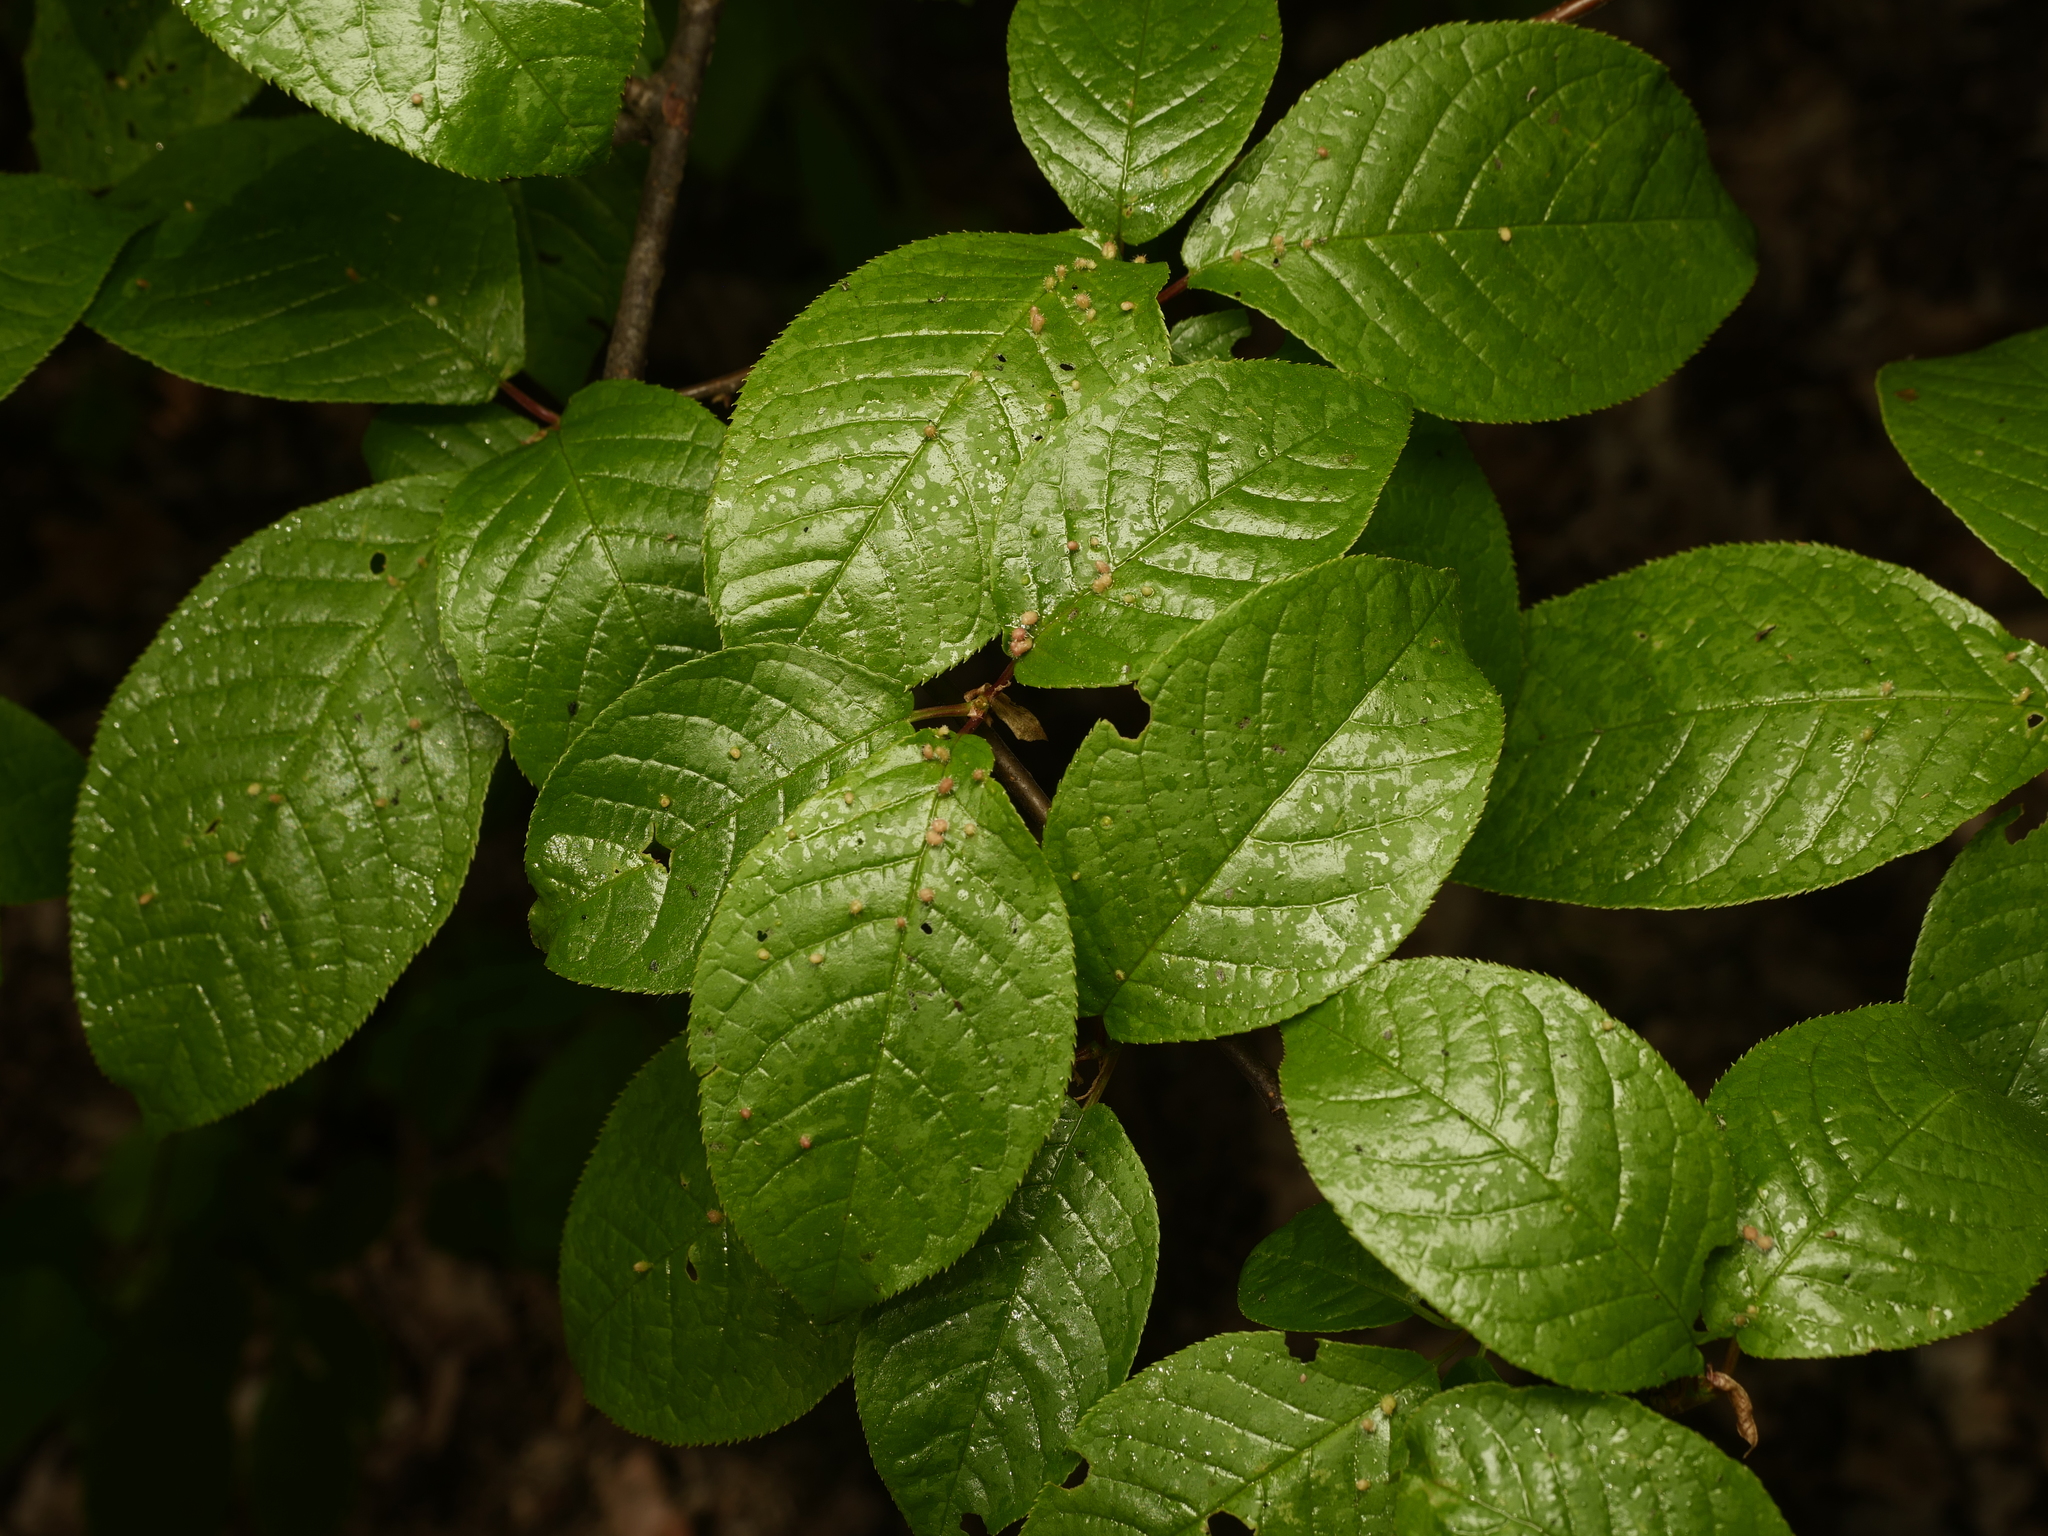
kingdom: Plantae
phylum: Tracheophyta
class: Magnoliopsida
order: Rosales
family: Rosaceae
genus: Prunus
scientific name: Prunus padus
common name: Bird cherry
